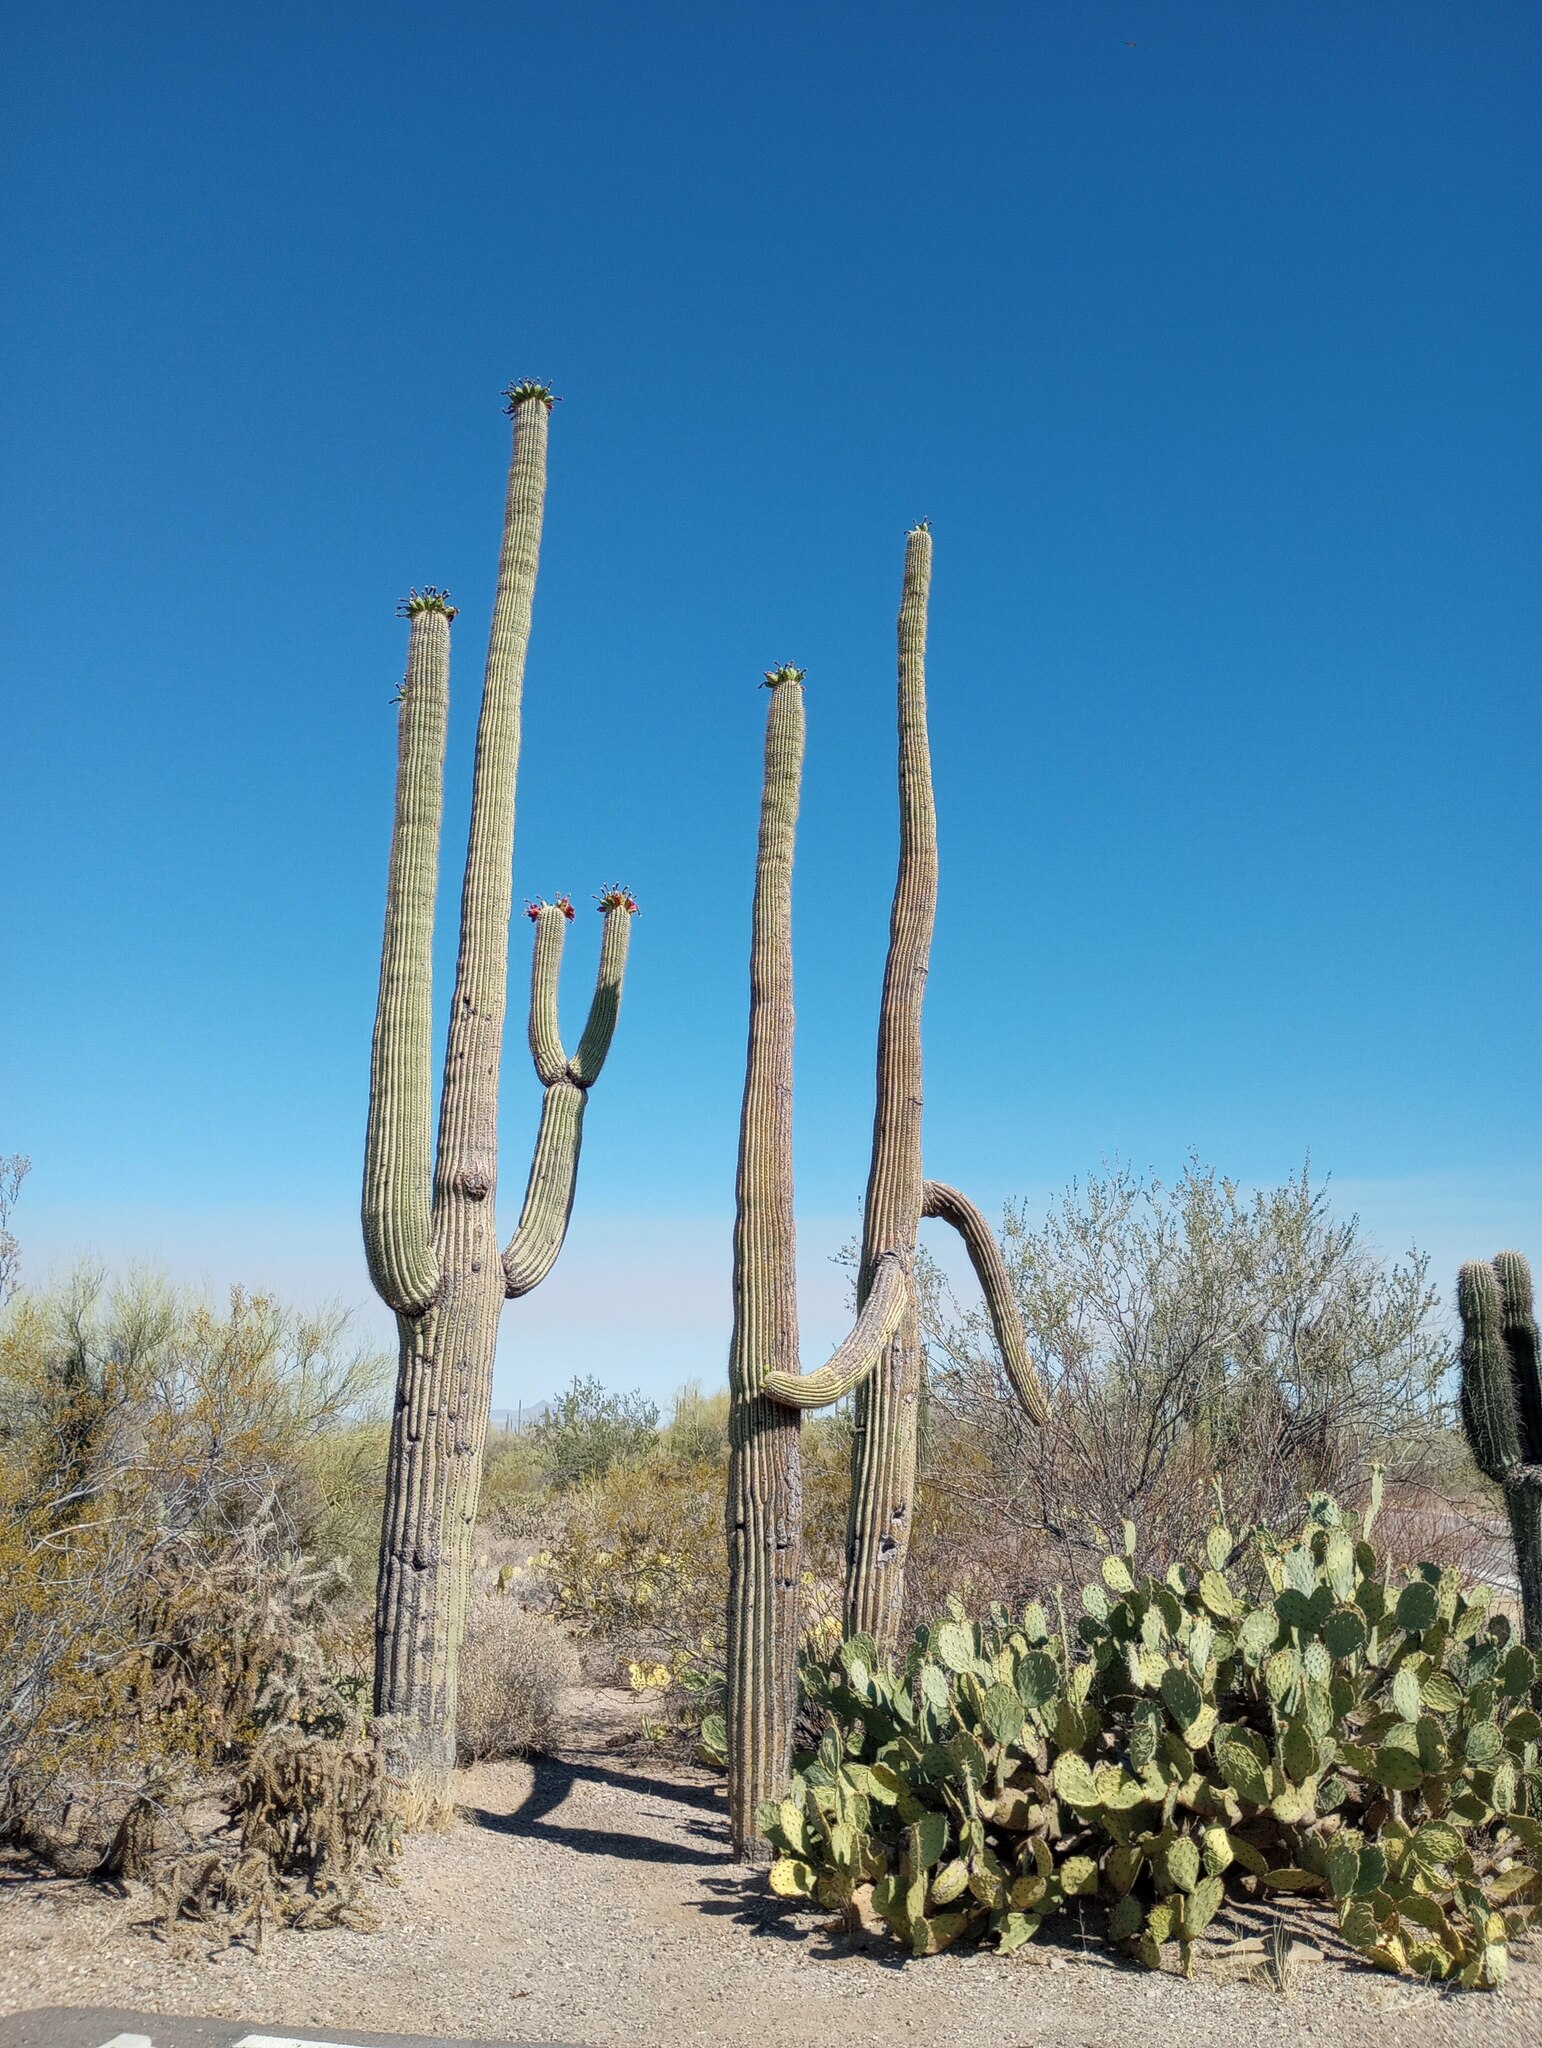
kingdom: Plantae
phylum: Tracheophyta
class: Magnoliopsida
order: Caryophyllales
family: Cactaceae
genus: Carnegiea
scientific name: Carnegiea gigantea
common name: Saguaro
